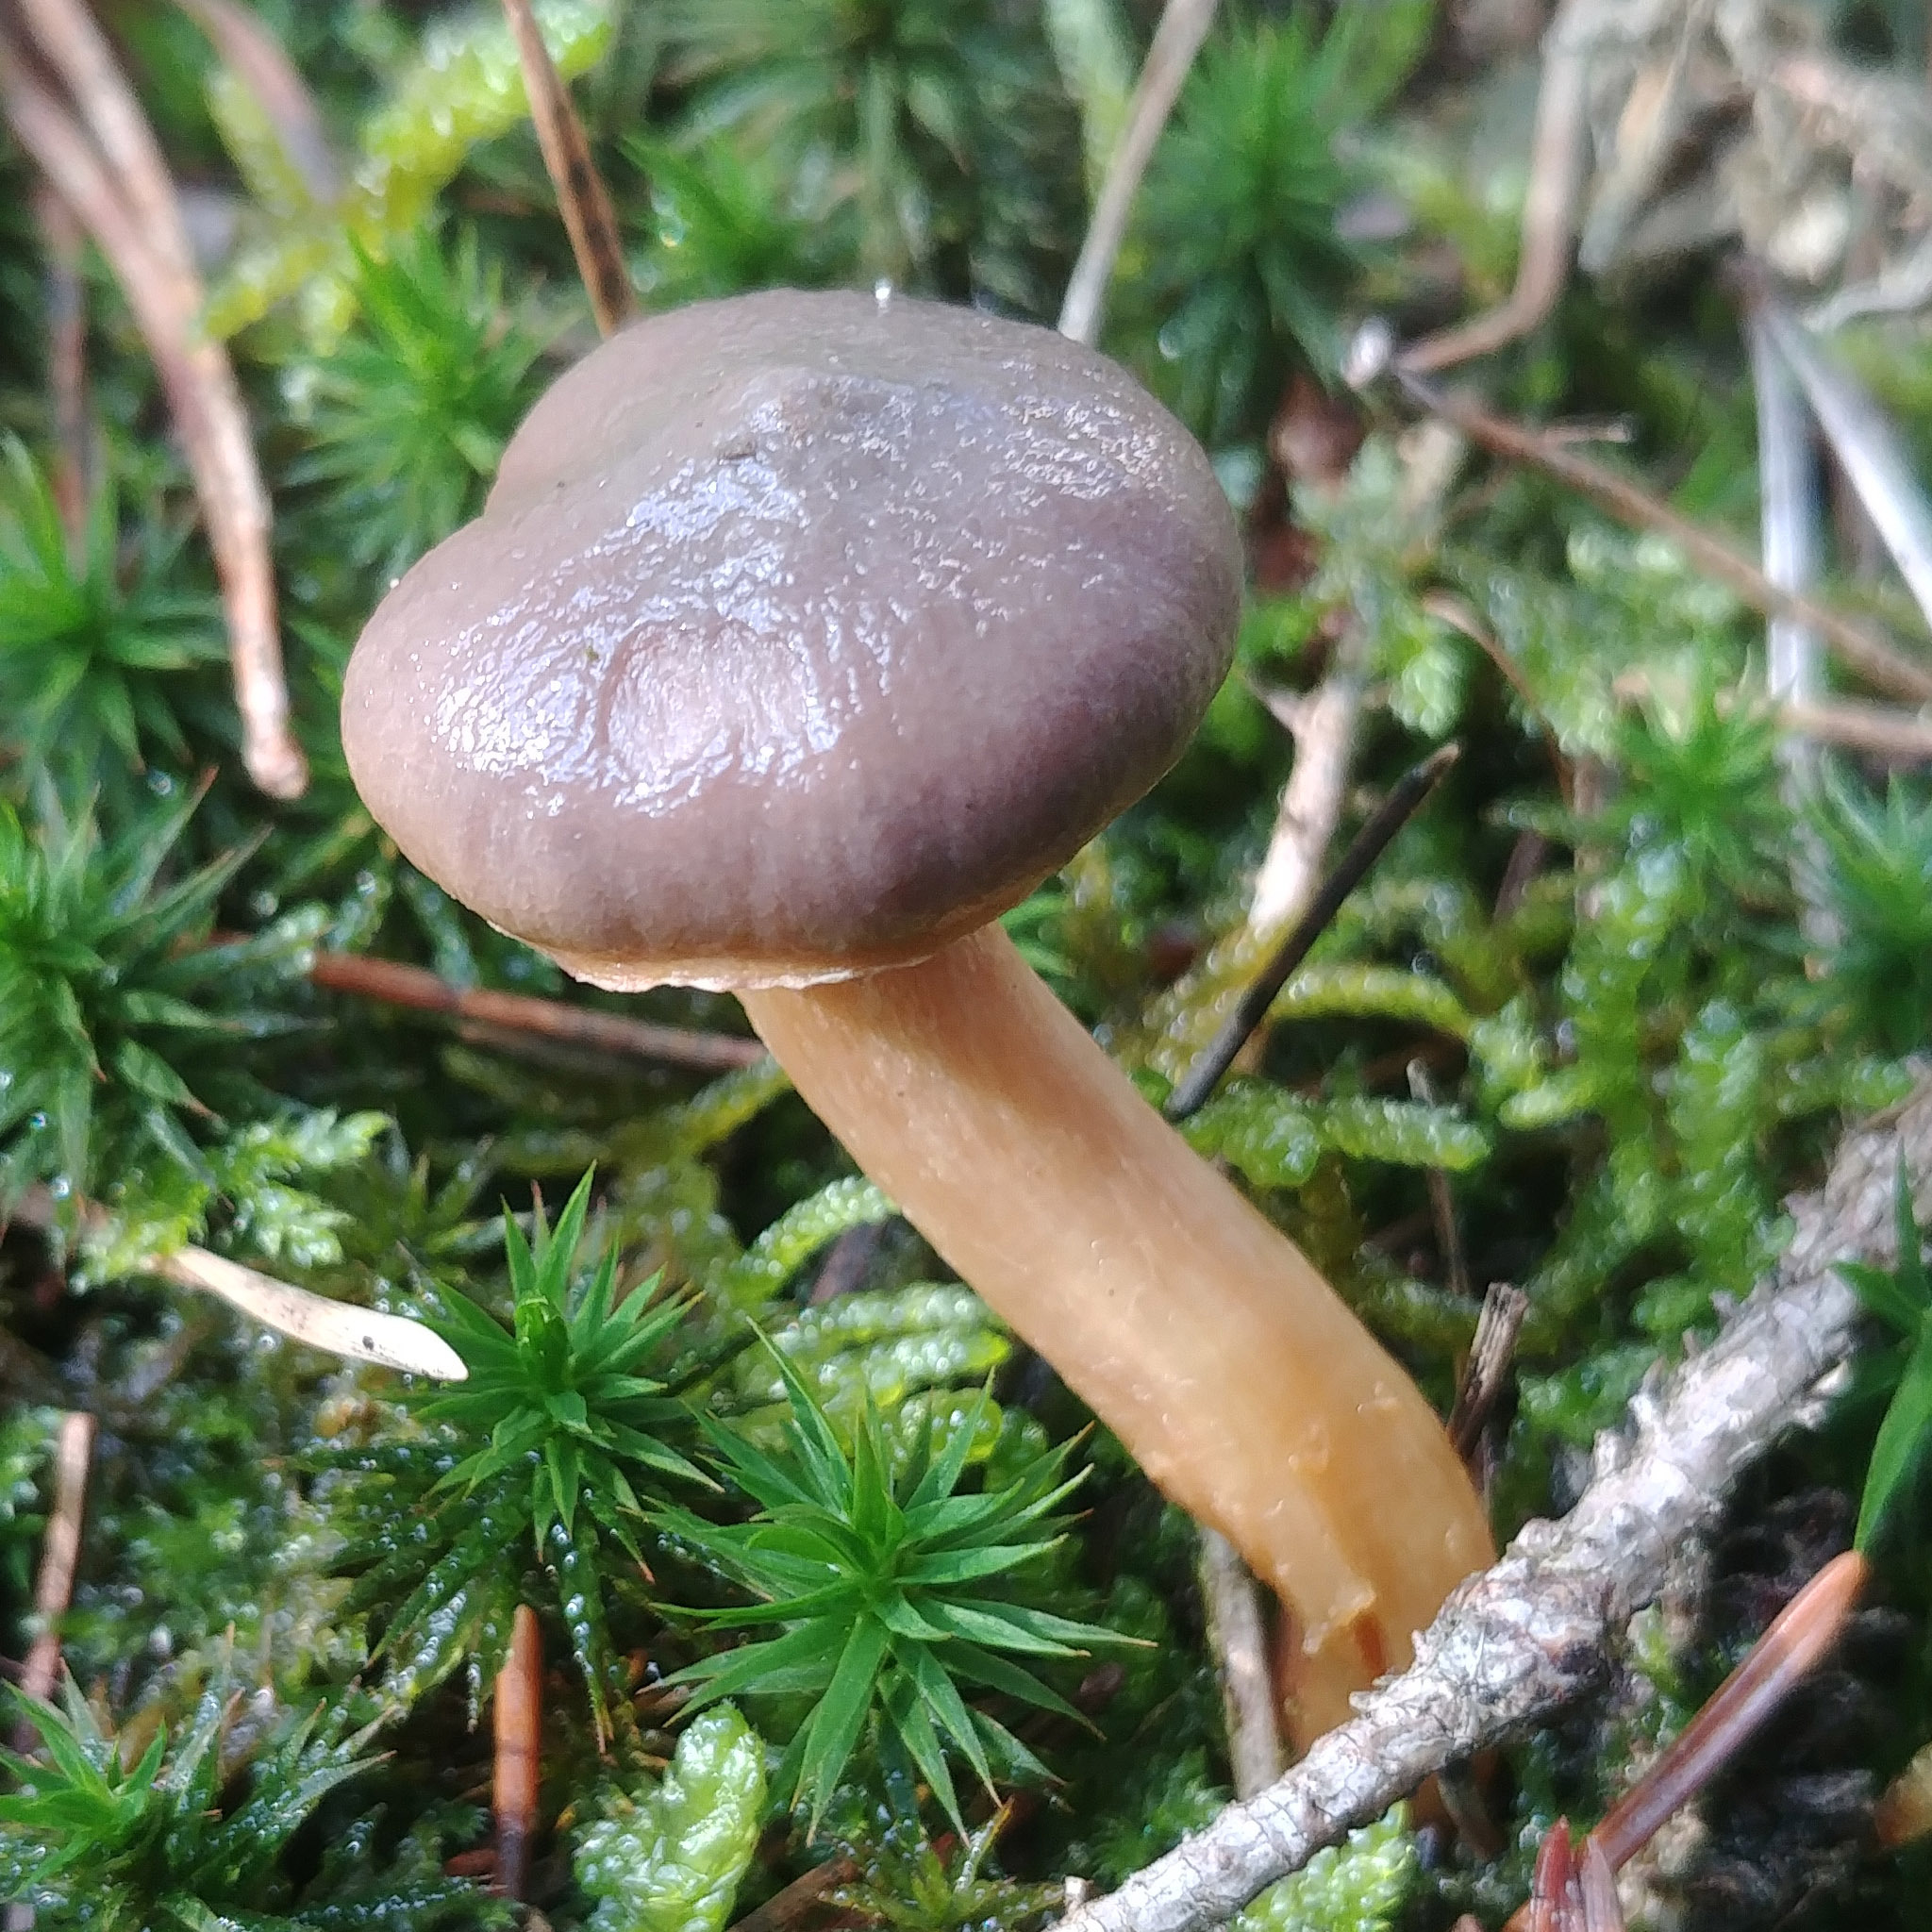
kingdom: Fungi
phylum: Basidiomycota
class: Agaricomycetes
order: Boletales
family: Gomphidiaceae
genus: Chroogomphus
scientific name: Chroogomphus rutilus
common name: Copper spike
